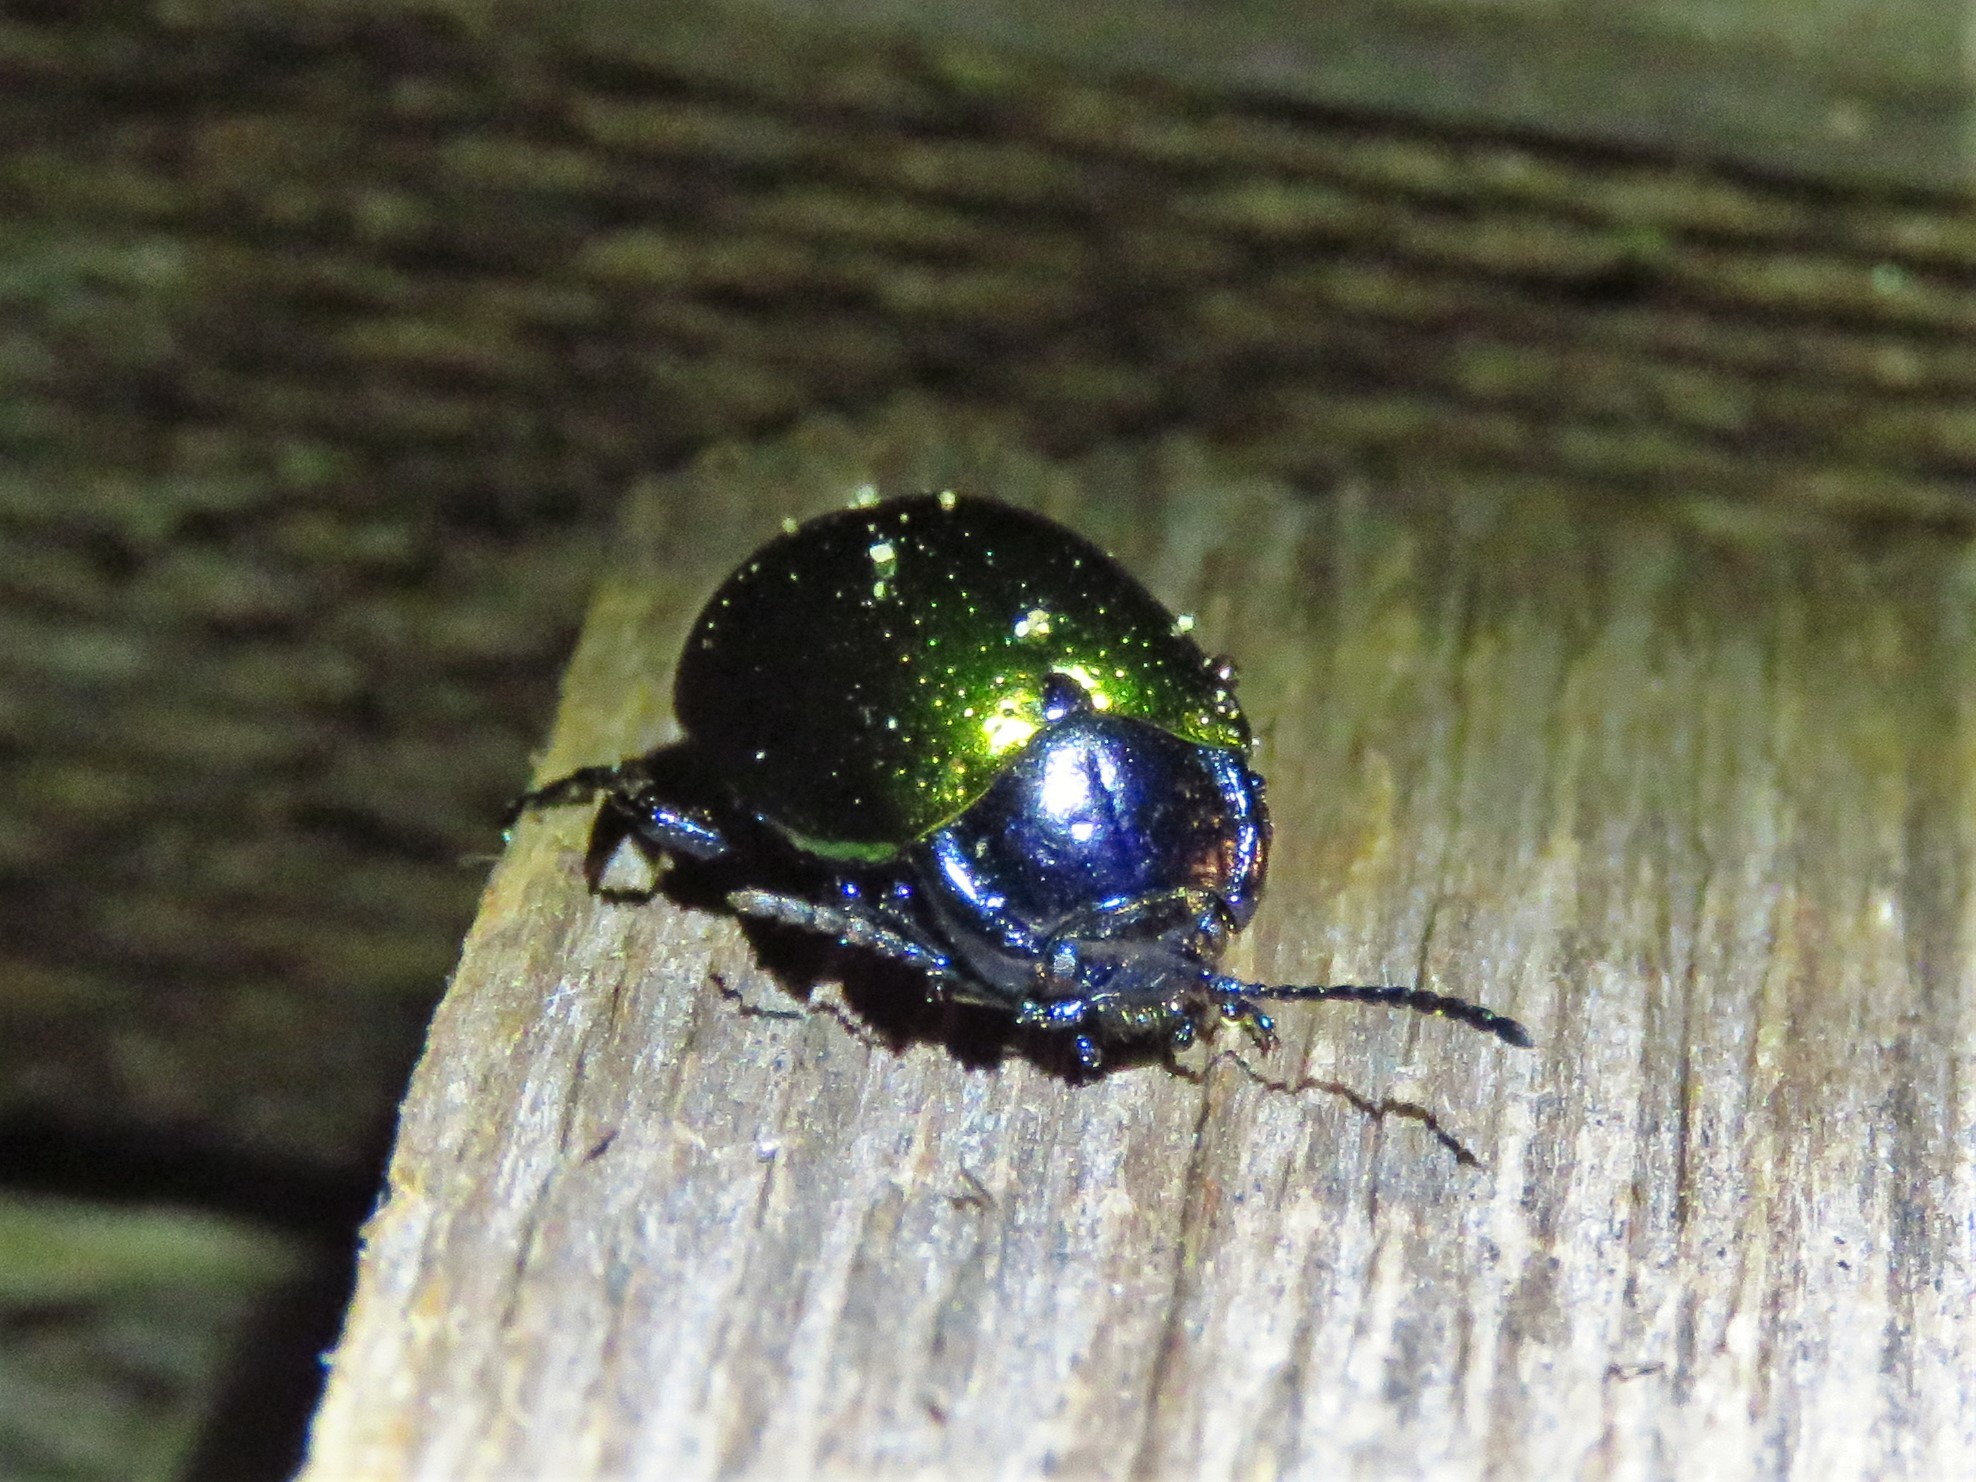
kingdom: Animalia
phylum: Arthropoda
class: Insecta
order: Coleoptera
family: Chrysomelidae
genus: Chrysolina
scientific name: Chrysolina auripennis
